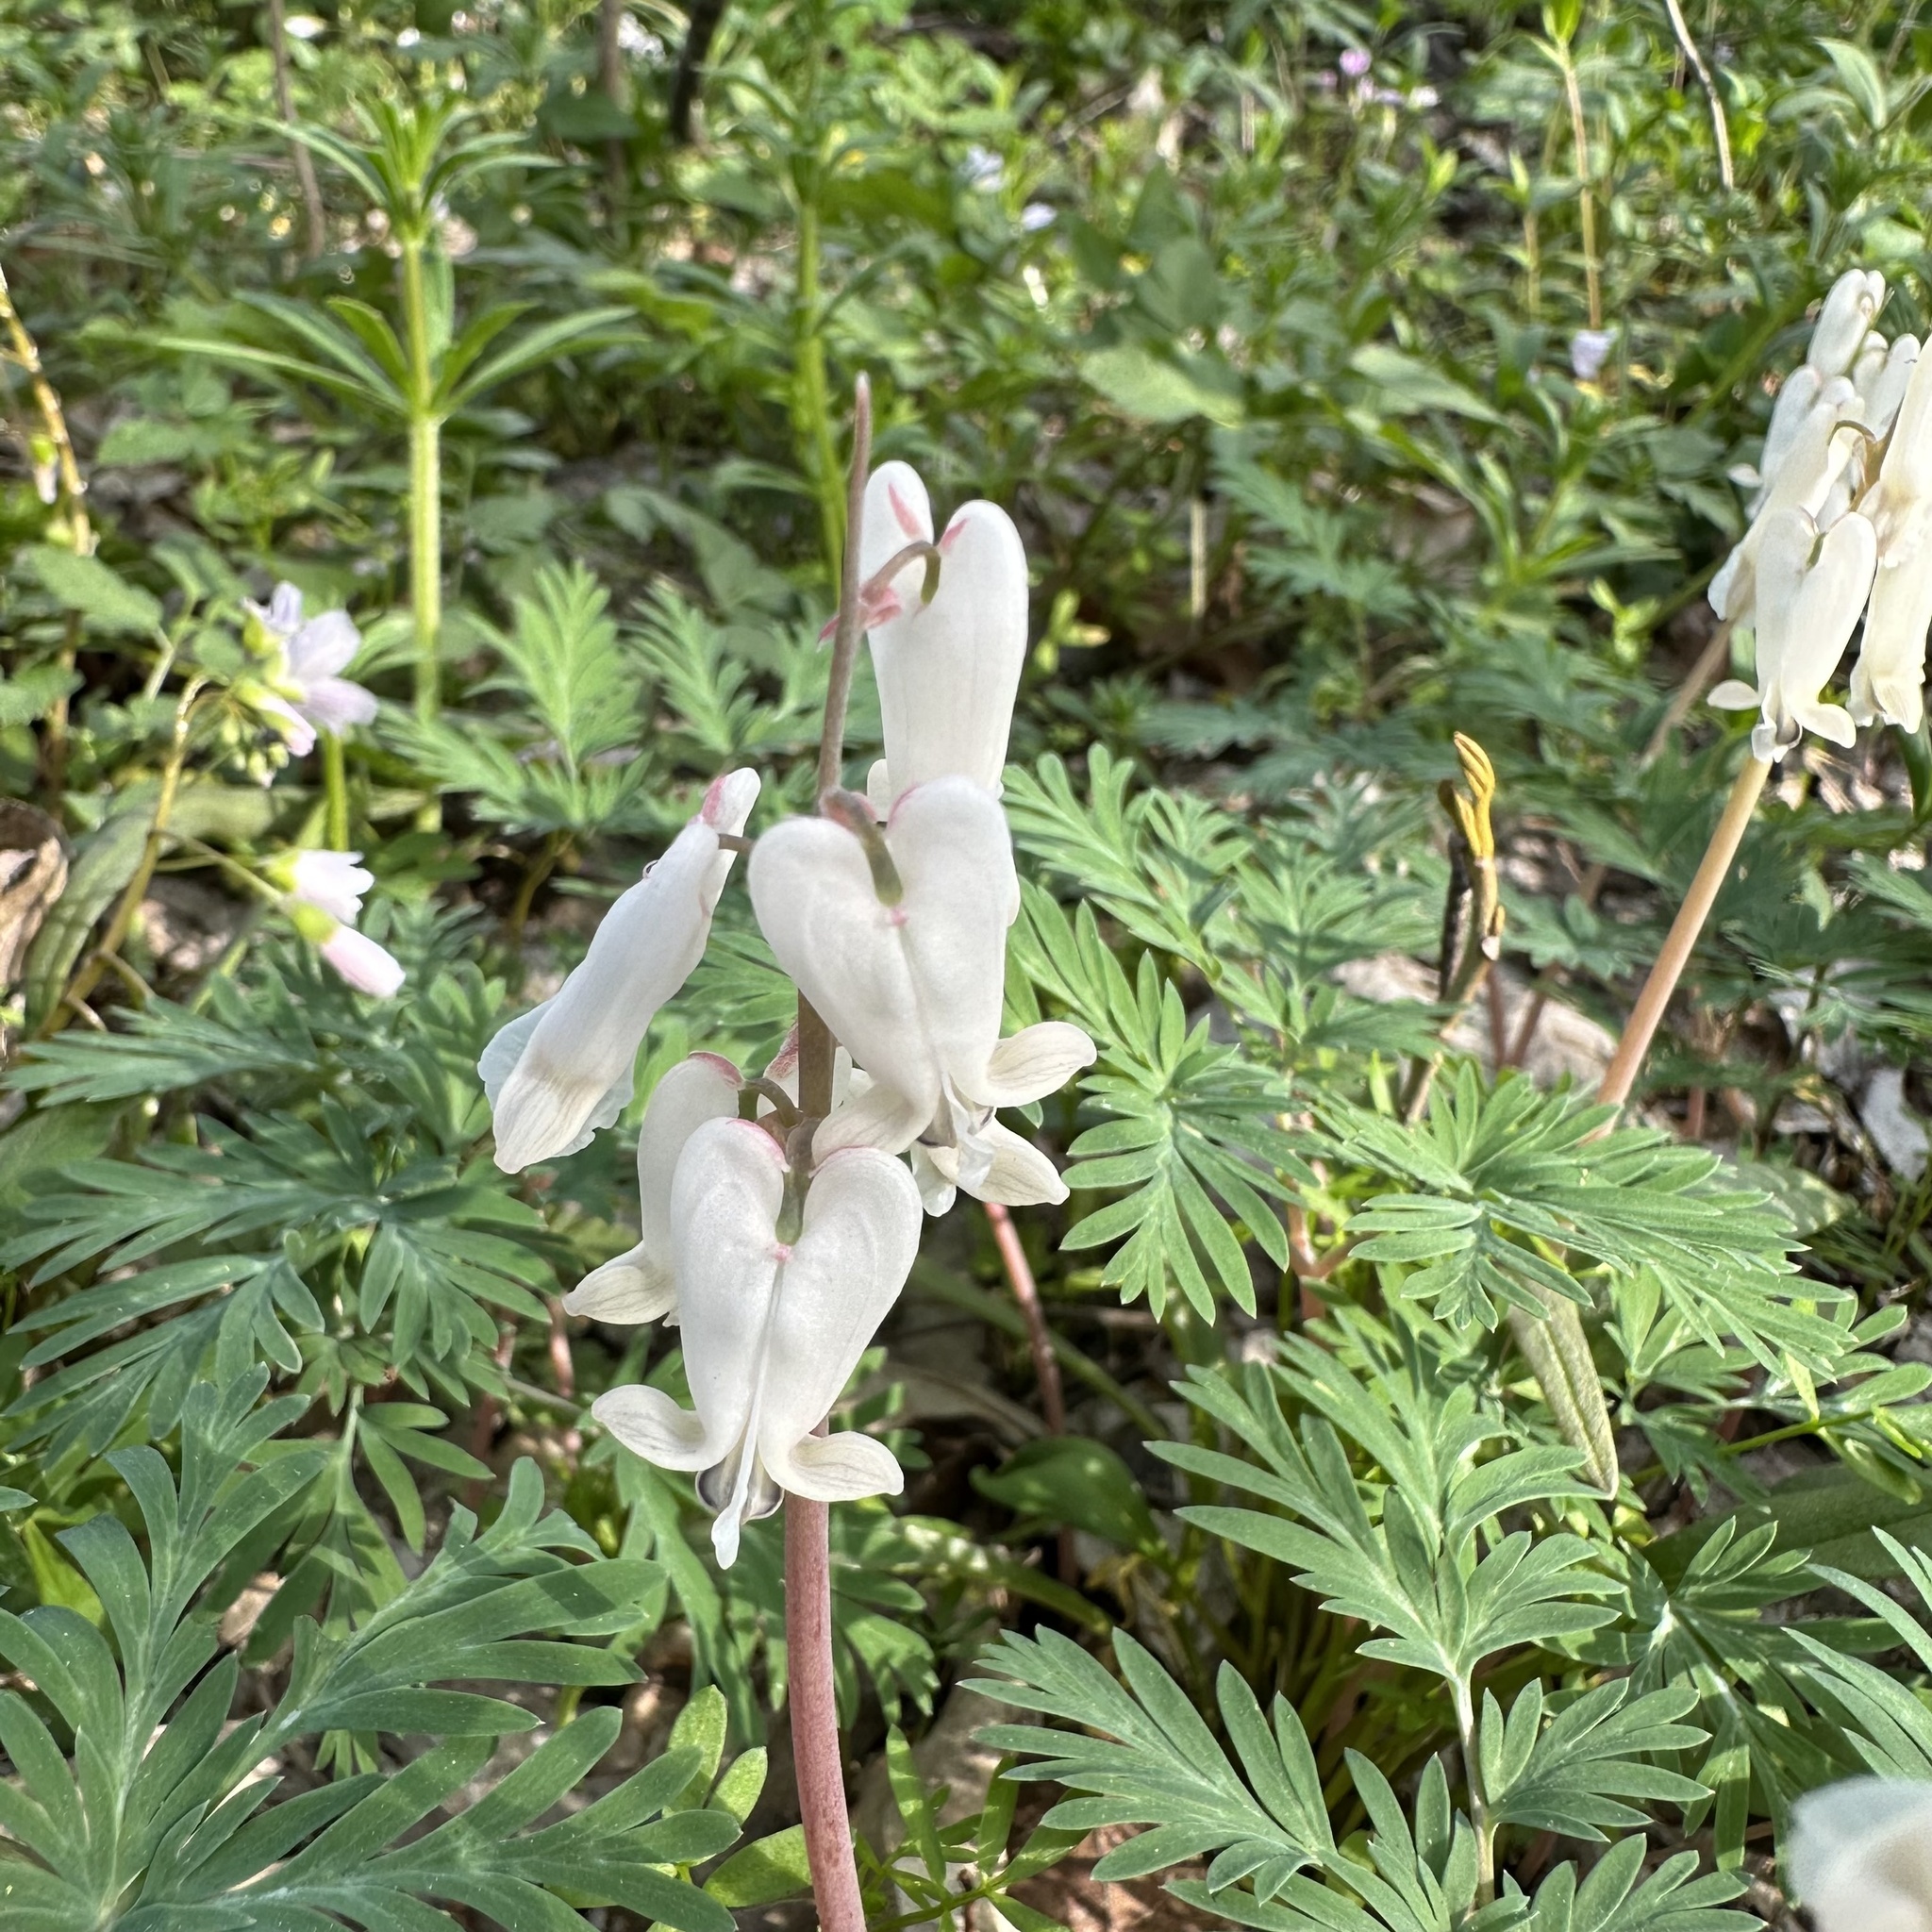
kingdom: Plantae
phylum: Tracheophyta
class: Magnoliopsida
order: Ranunculales
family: Papaveraceae
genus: Dicentra
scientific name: Dicentra canadensis
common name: Squirrel-corn
